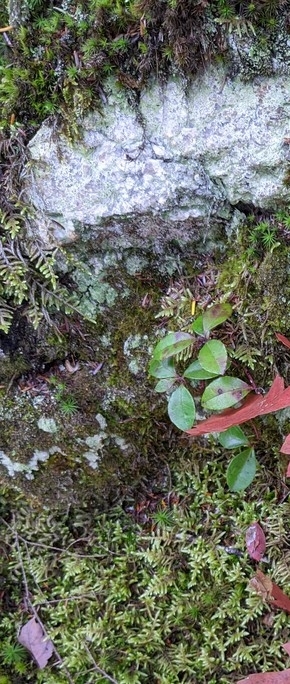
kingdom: Plantae
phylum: Tracheophyta
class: Magnoliopsida
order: Ericales
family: Ericaceae
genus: Gaultheria
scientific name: Gaultheria procumbens
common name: Checkerberry
